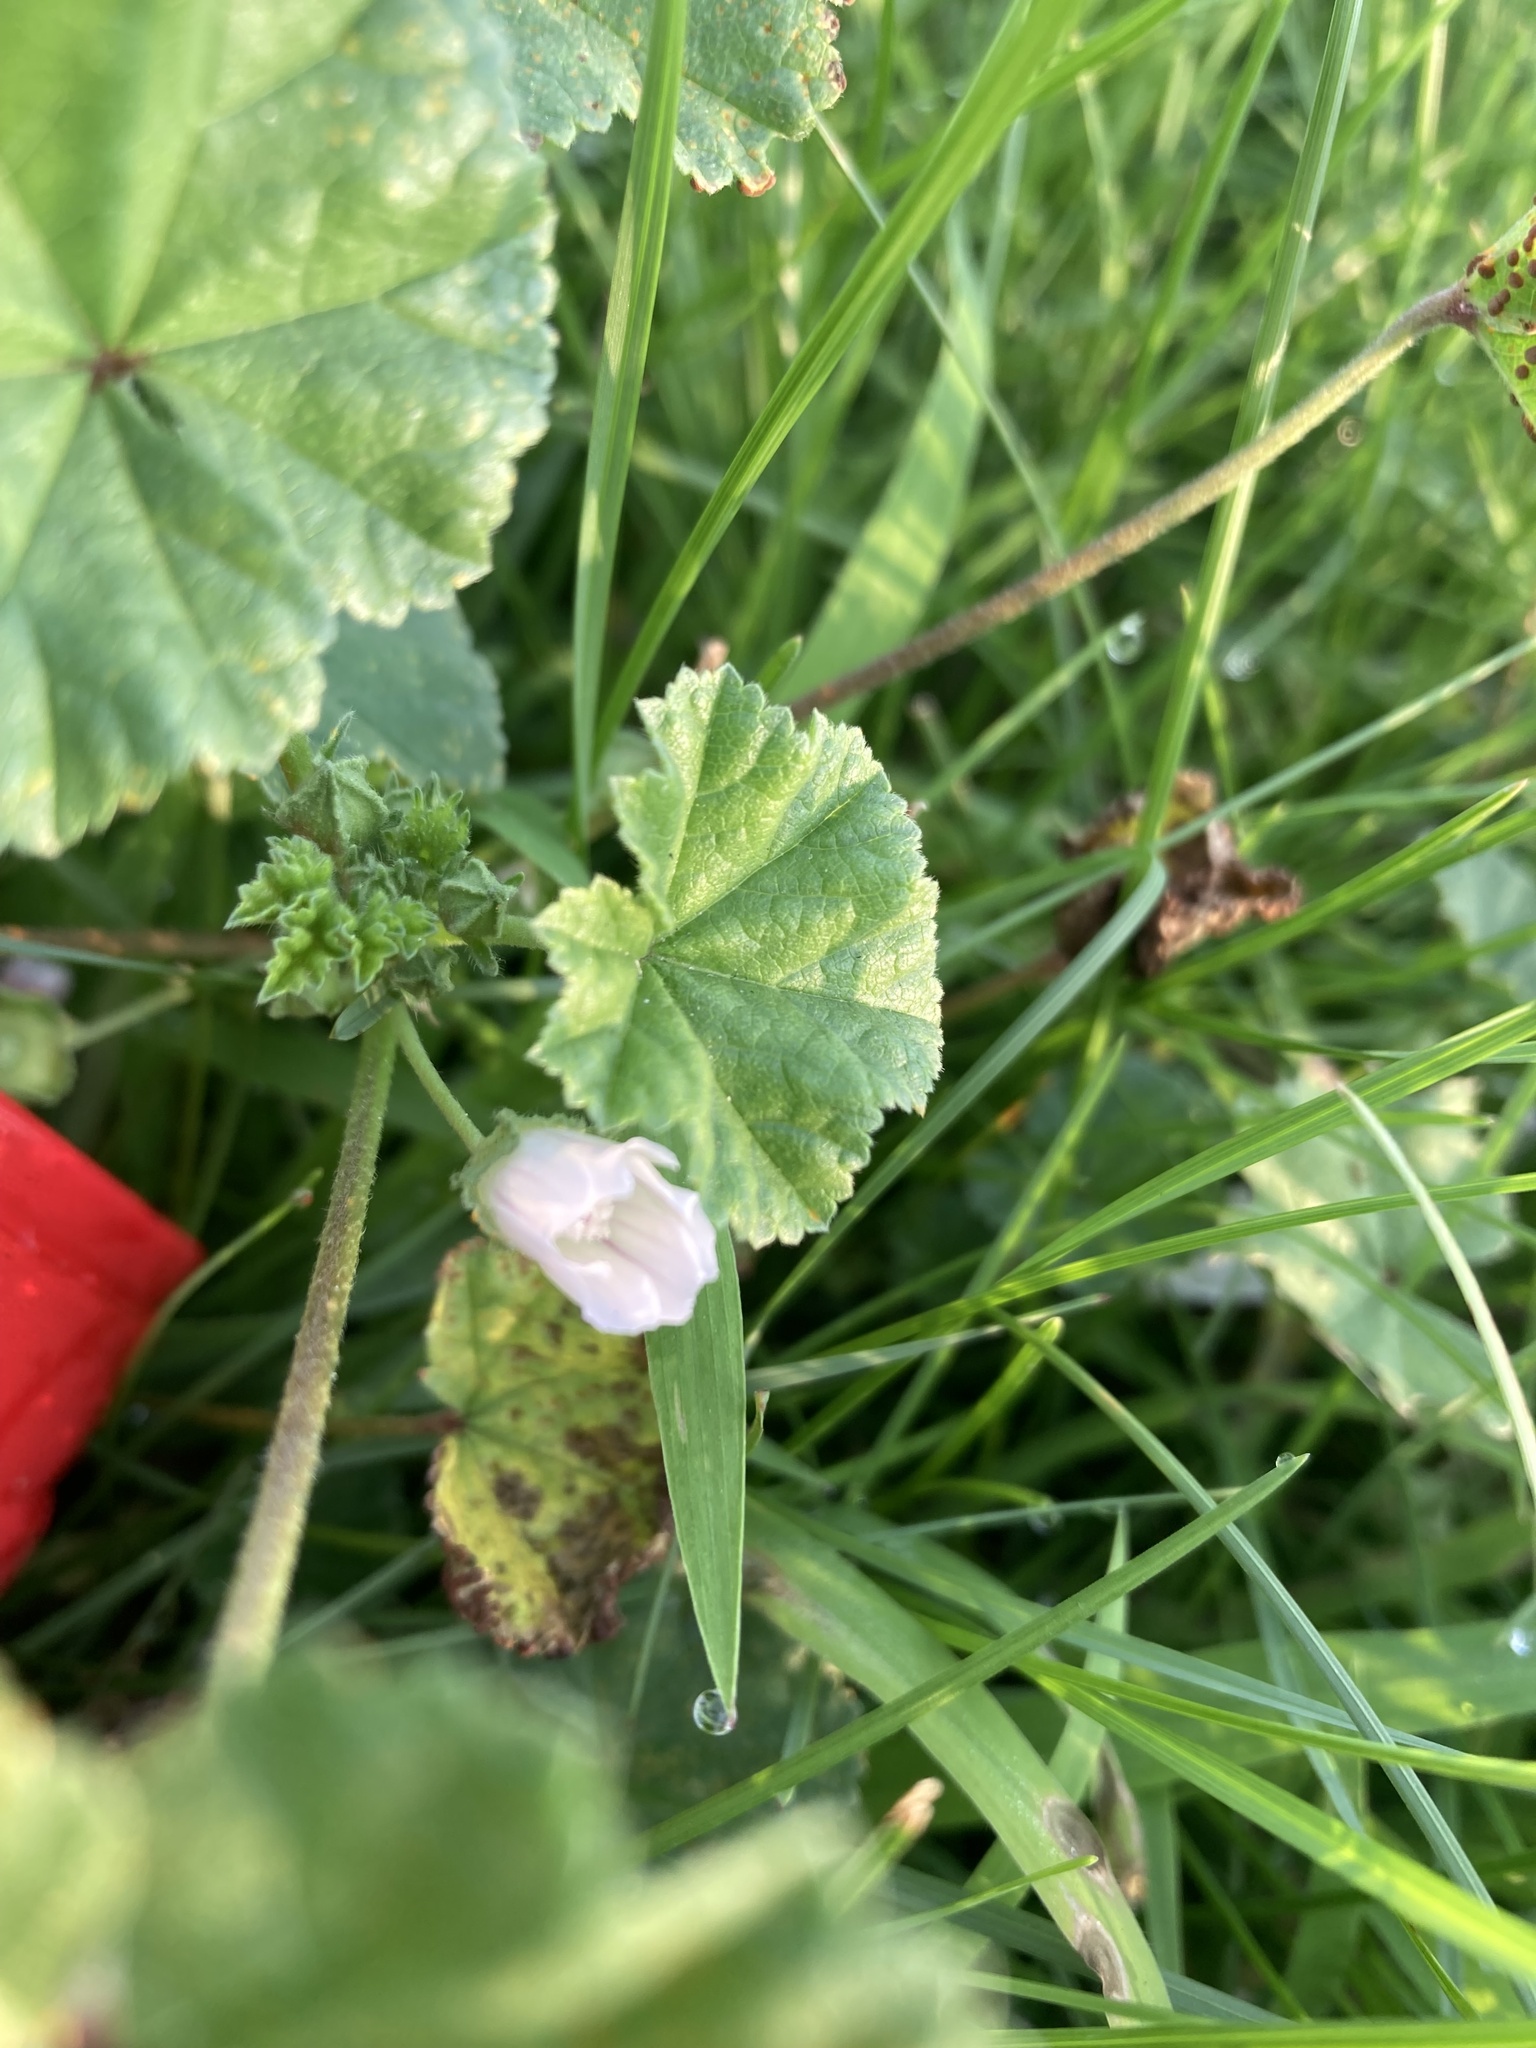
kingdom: Plantae
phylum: Tracheophyta
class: Magnoliopsida
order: Malvales
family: Malvaceae
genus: Malva
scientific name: Malva neglecta
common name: Common mallow
